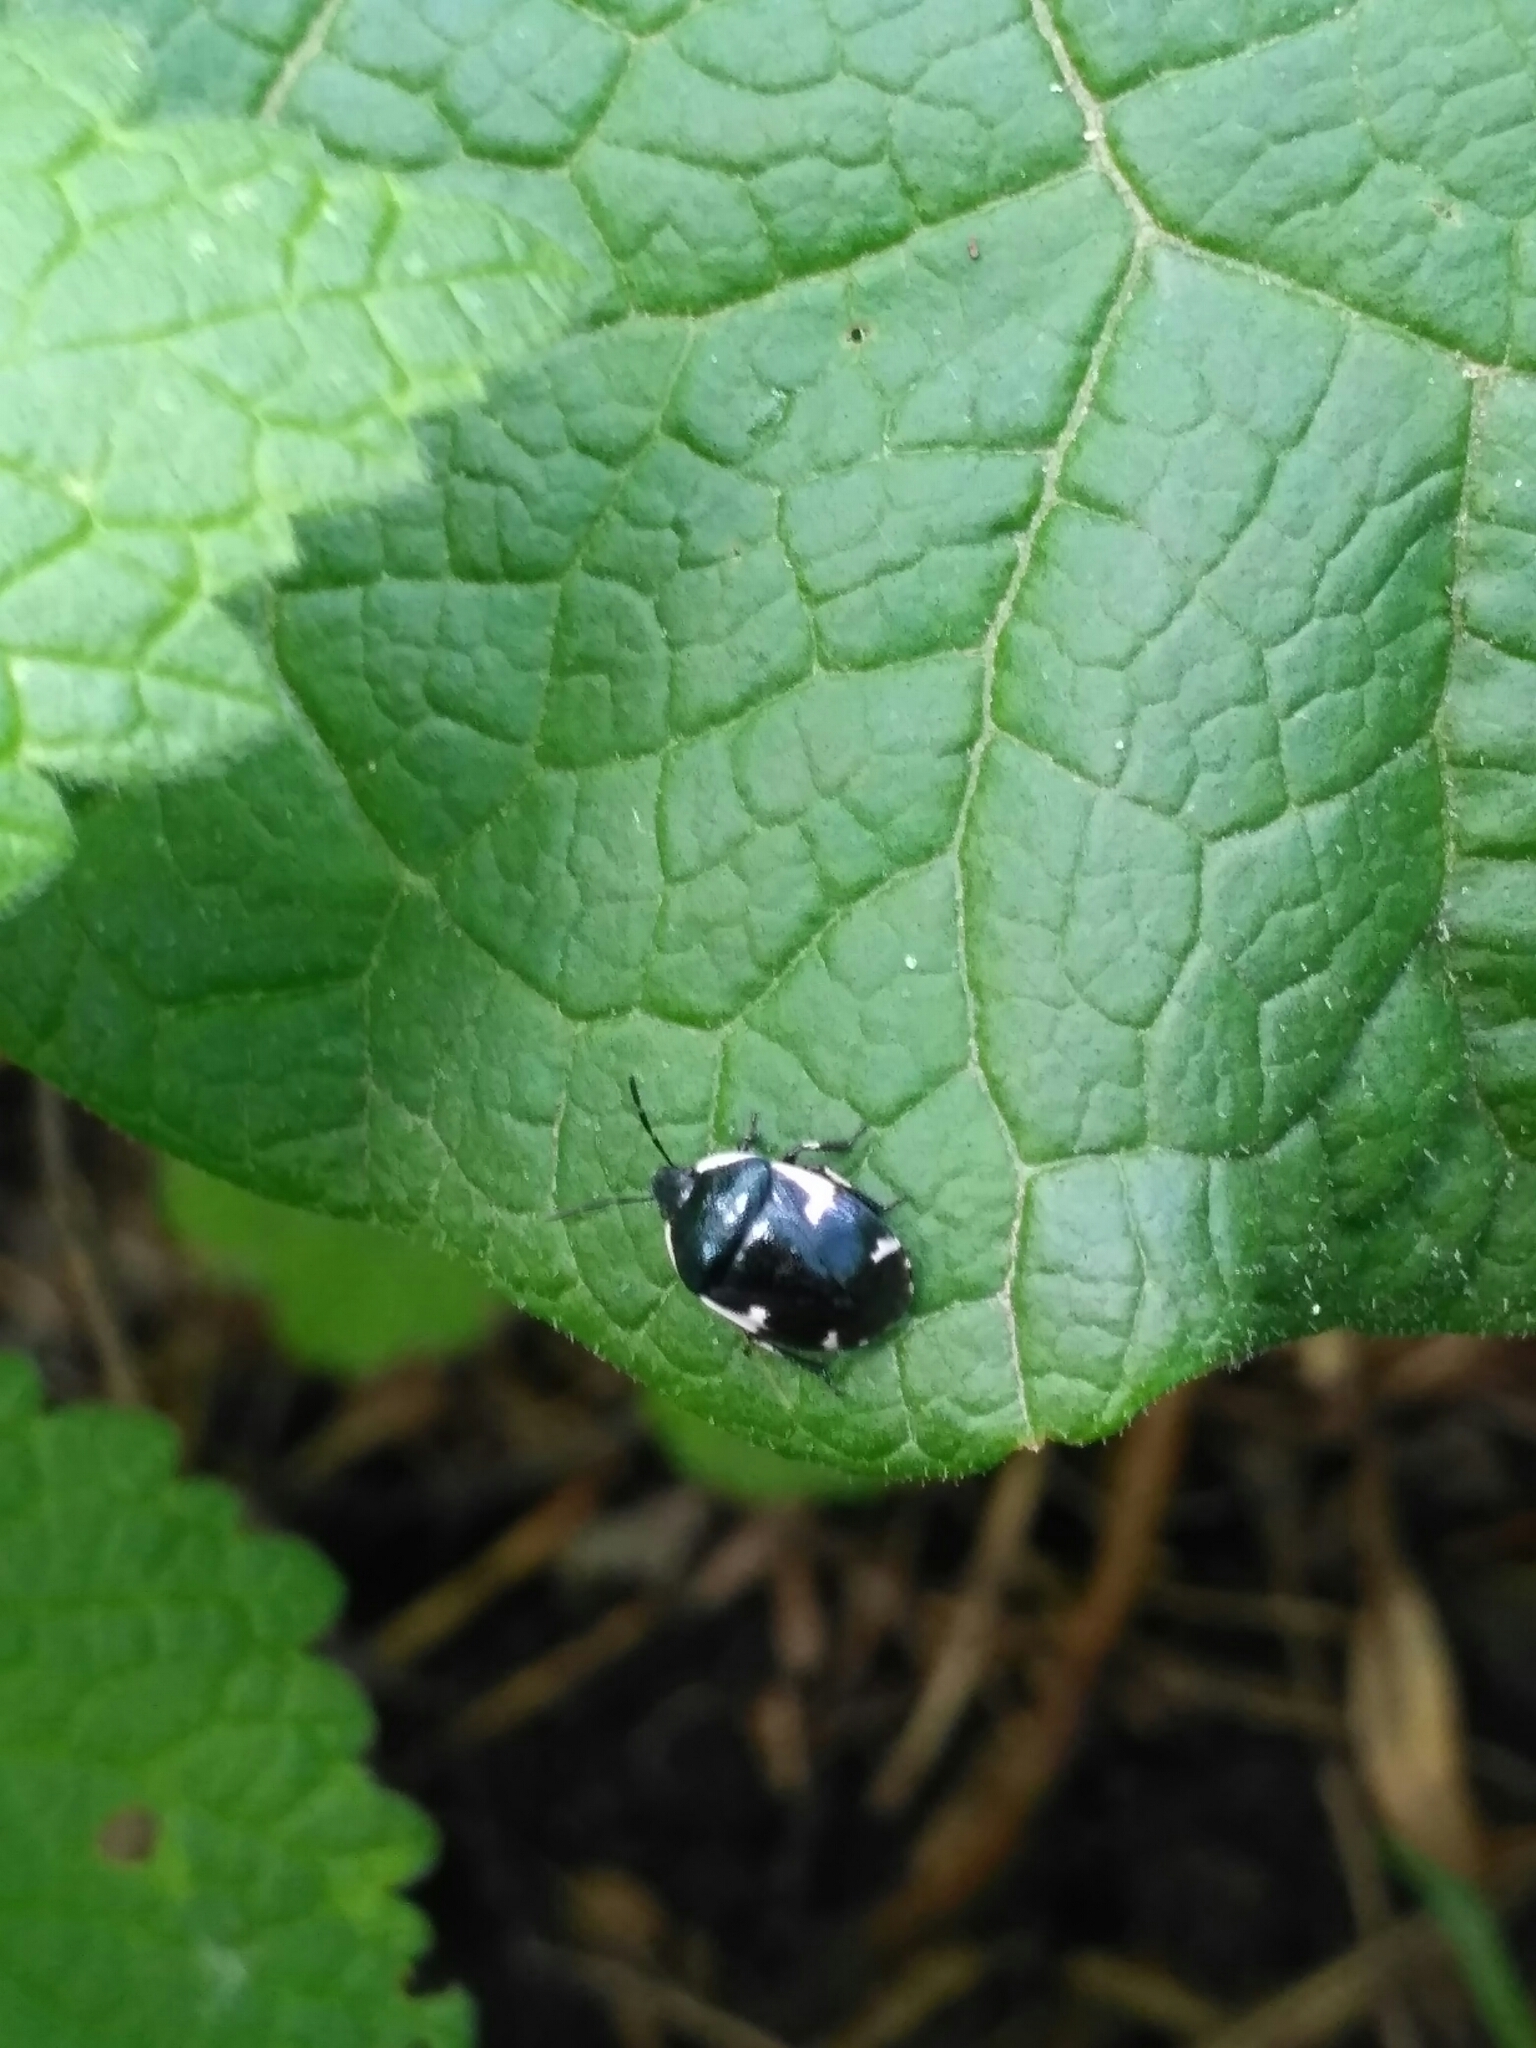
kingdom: Animalia
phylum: Arthropoda
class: Insecta
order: Hemiptera
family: Cydnidae
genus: Tritomegas
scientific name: Tritomegas sexmaculatus
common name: Rambur's pied shieldbug
